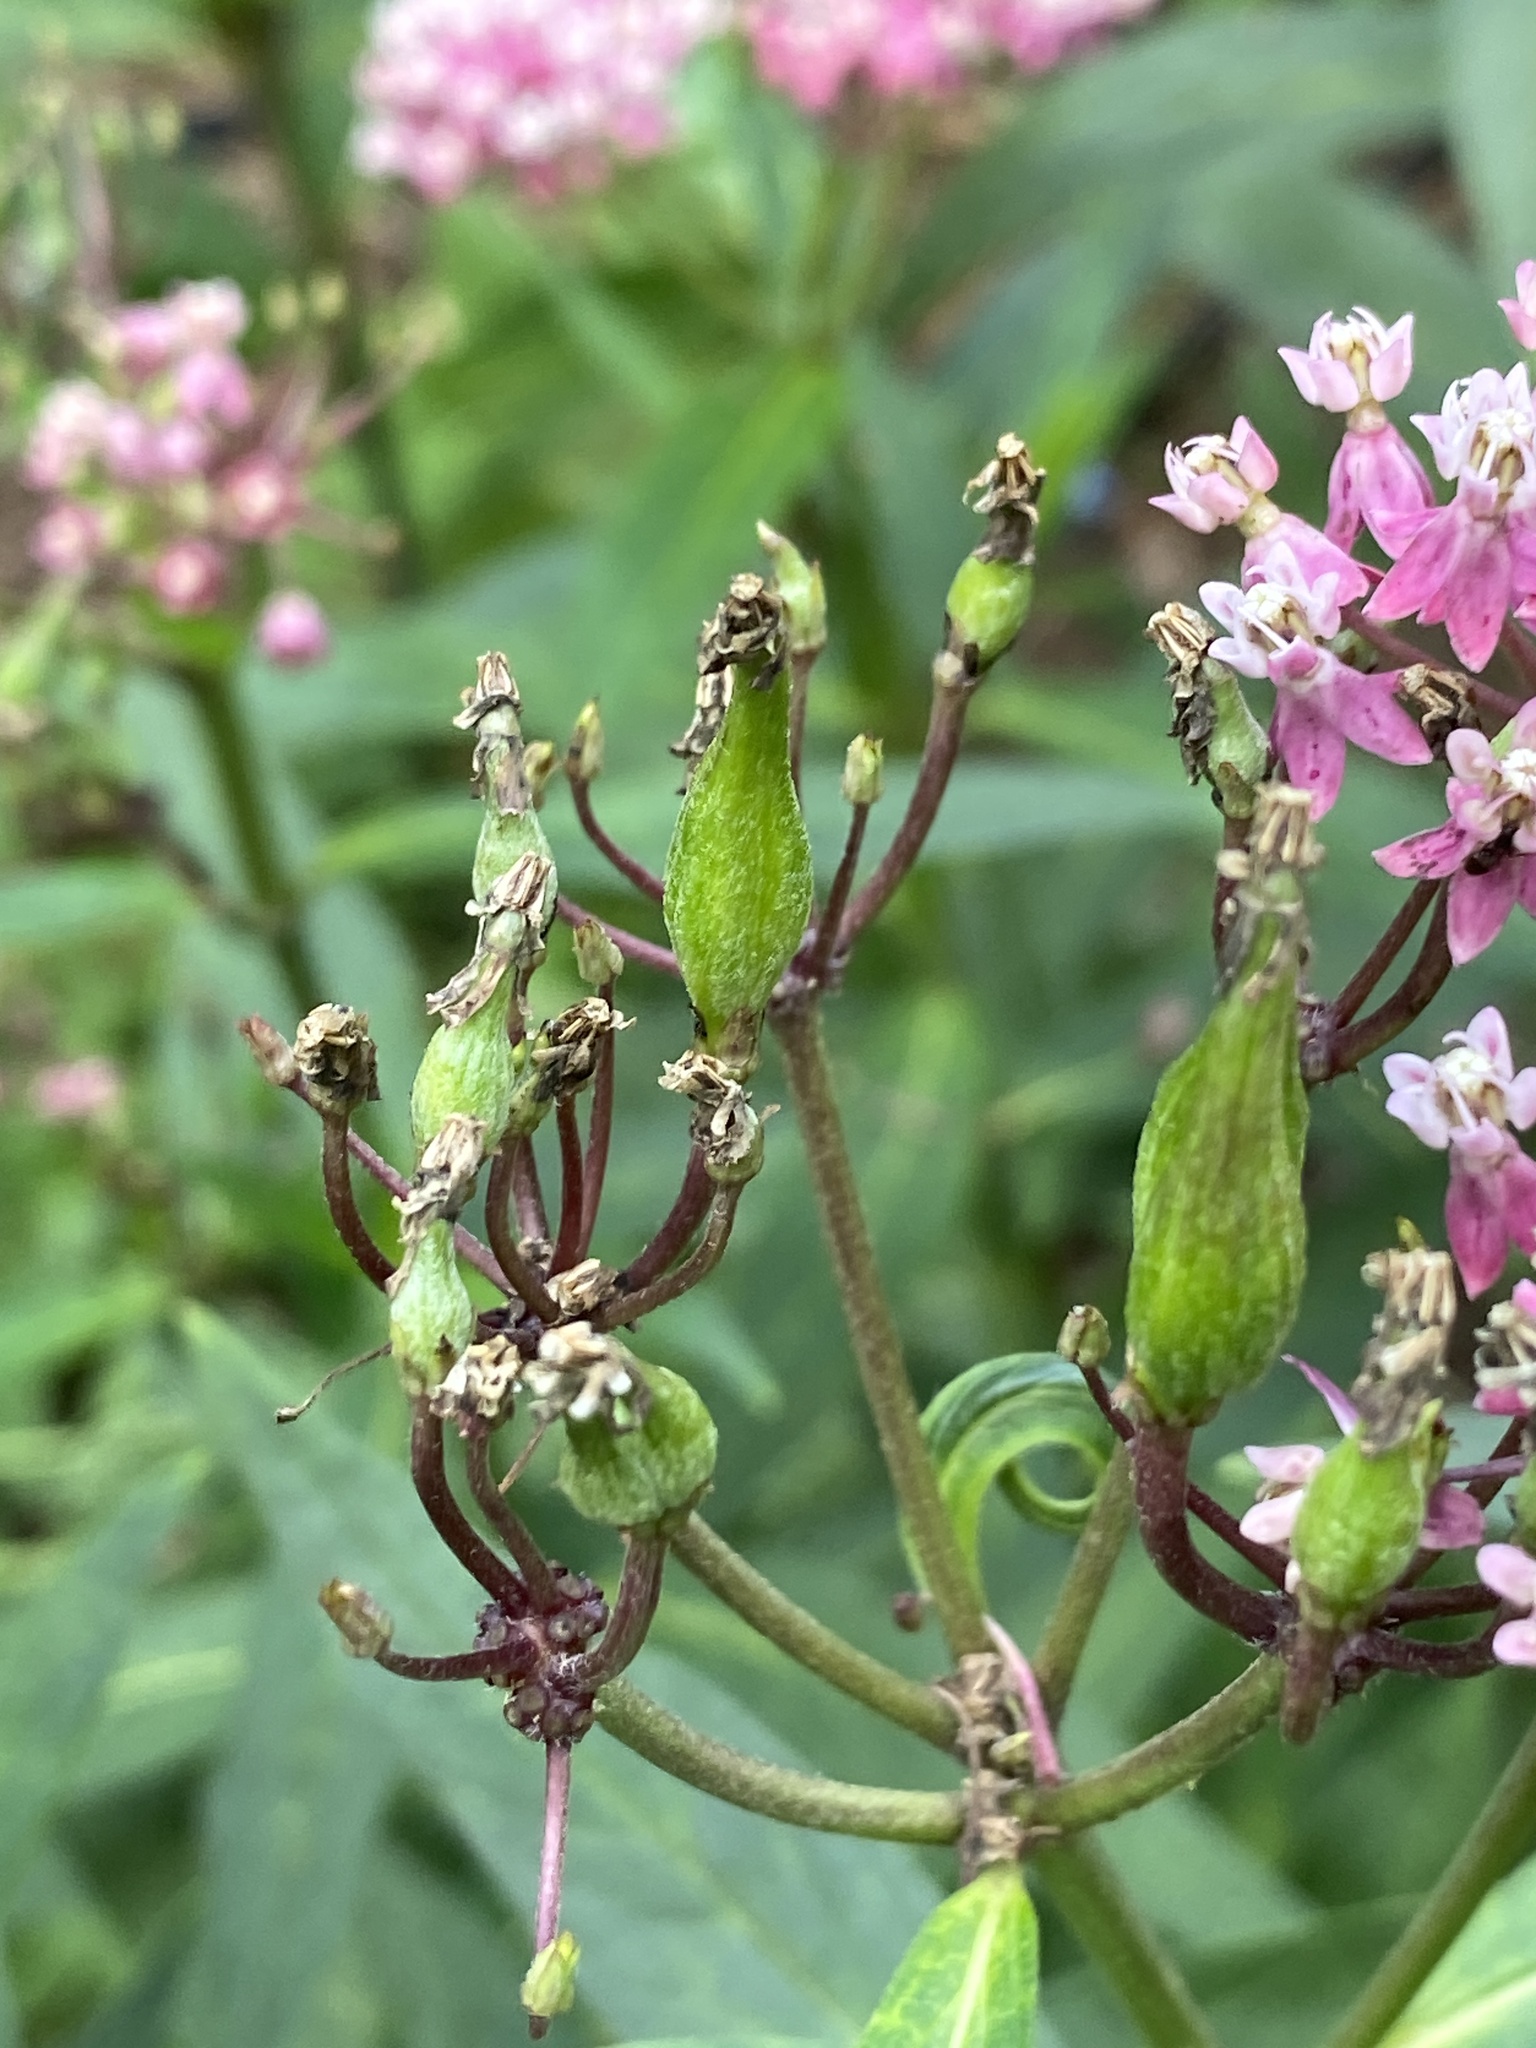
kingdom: Plantae
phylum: Tracheophyta
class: Magnoliopsida
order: Gentianales
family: Apocynaceae
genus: Asclepias
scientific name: Asclepias incarnata
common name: Swamp milkweed
